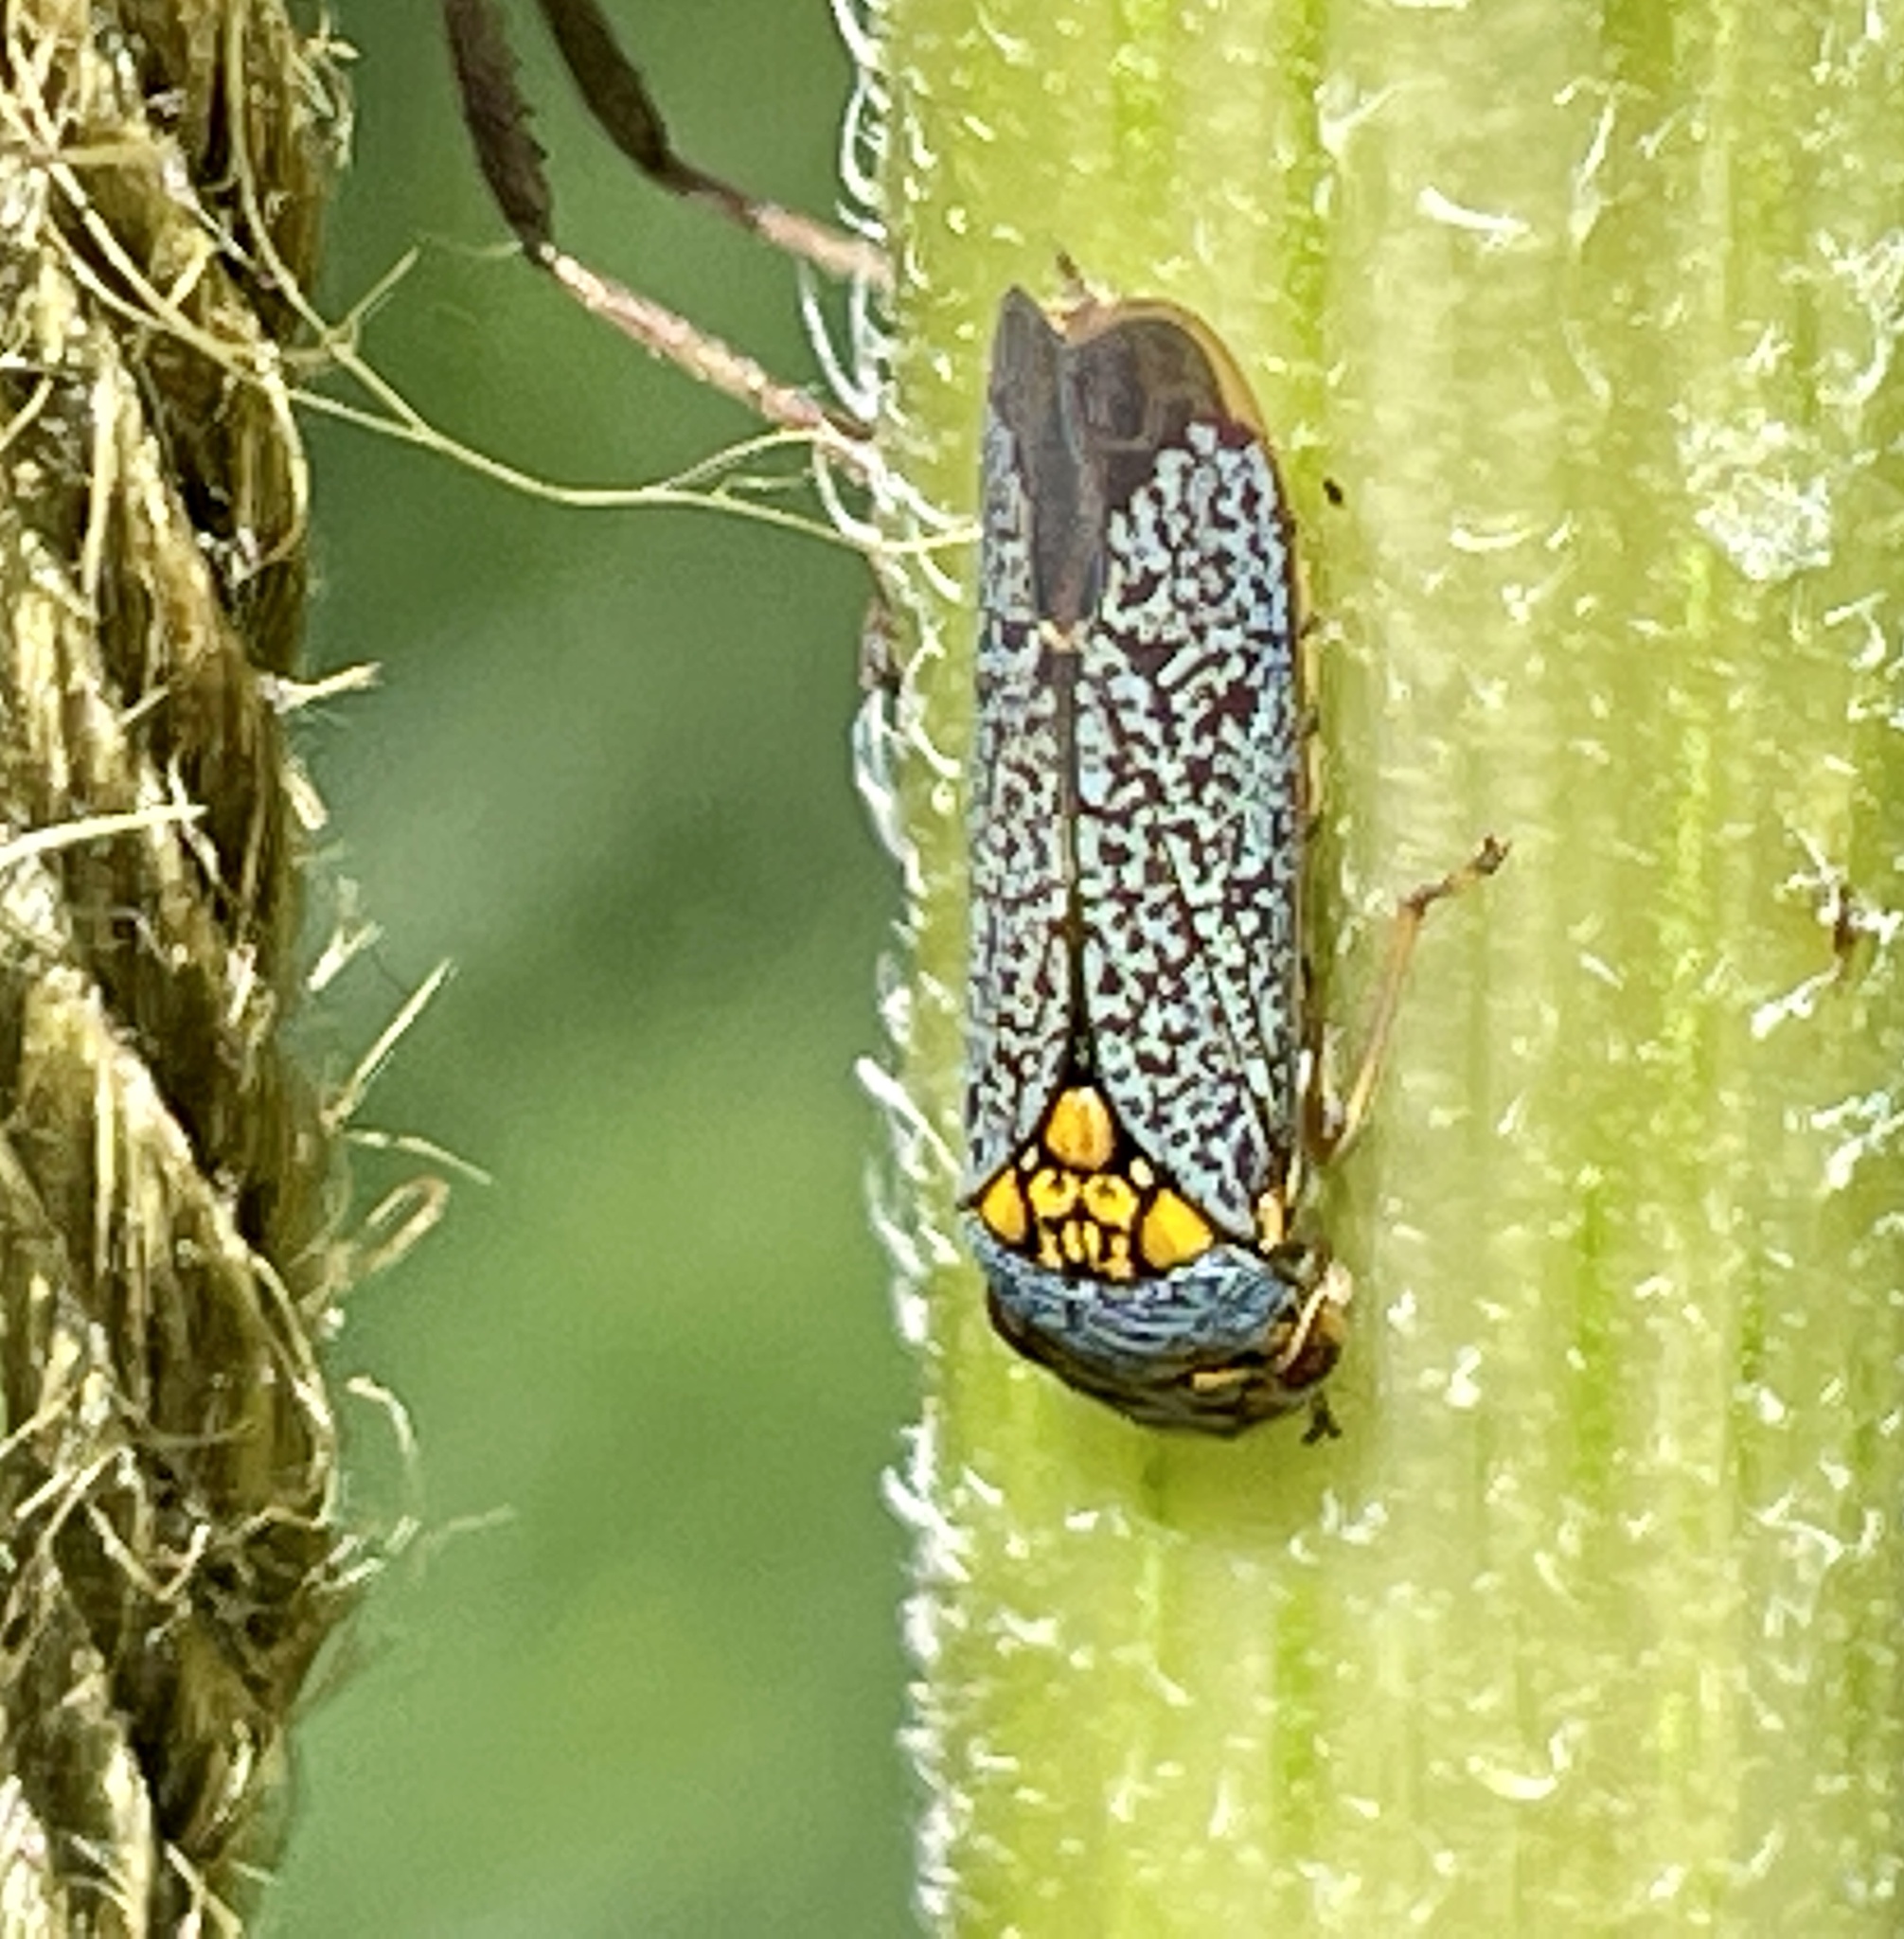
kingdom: Animalia
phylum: Arthropoda
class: Insecta
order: Hemiptera
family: Cicadellidae
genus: Oncometopia
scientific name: Oncometopia orbona
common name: Broad-headed sharpshooter
